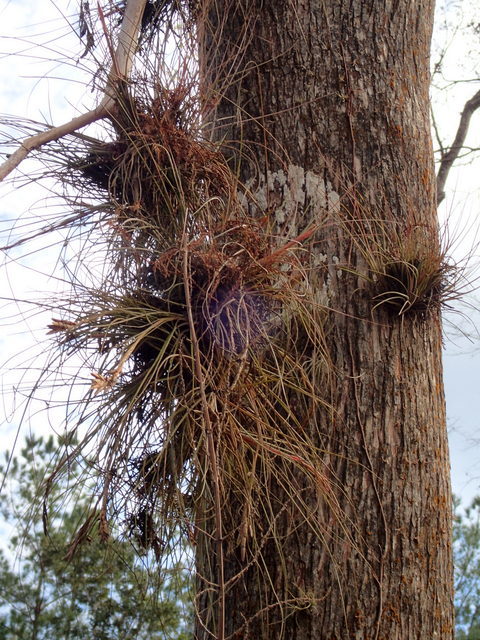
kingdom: Plantae
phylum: Tracheophyta
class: Liliopsida
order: Poales
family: Bromeliaceae
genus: Tillandsia
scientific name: Tillandsia bartramii
